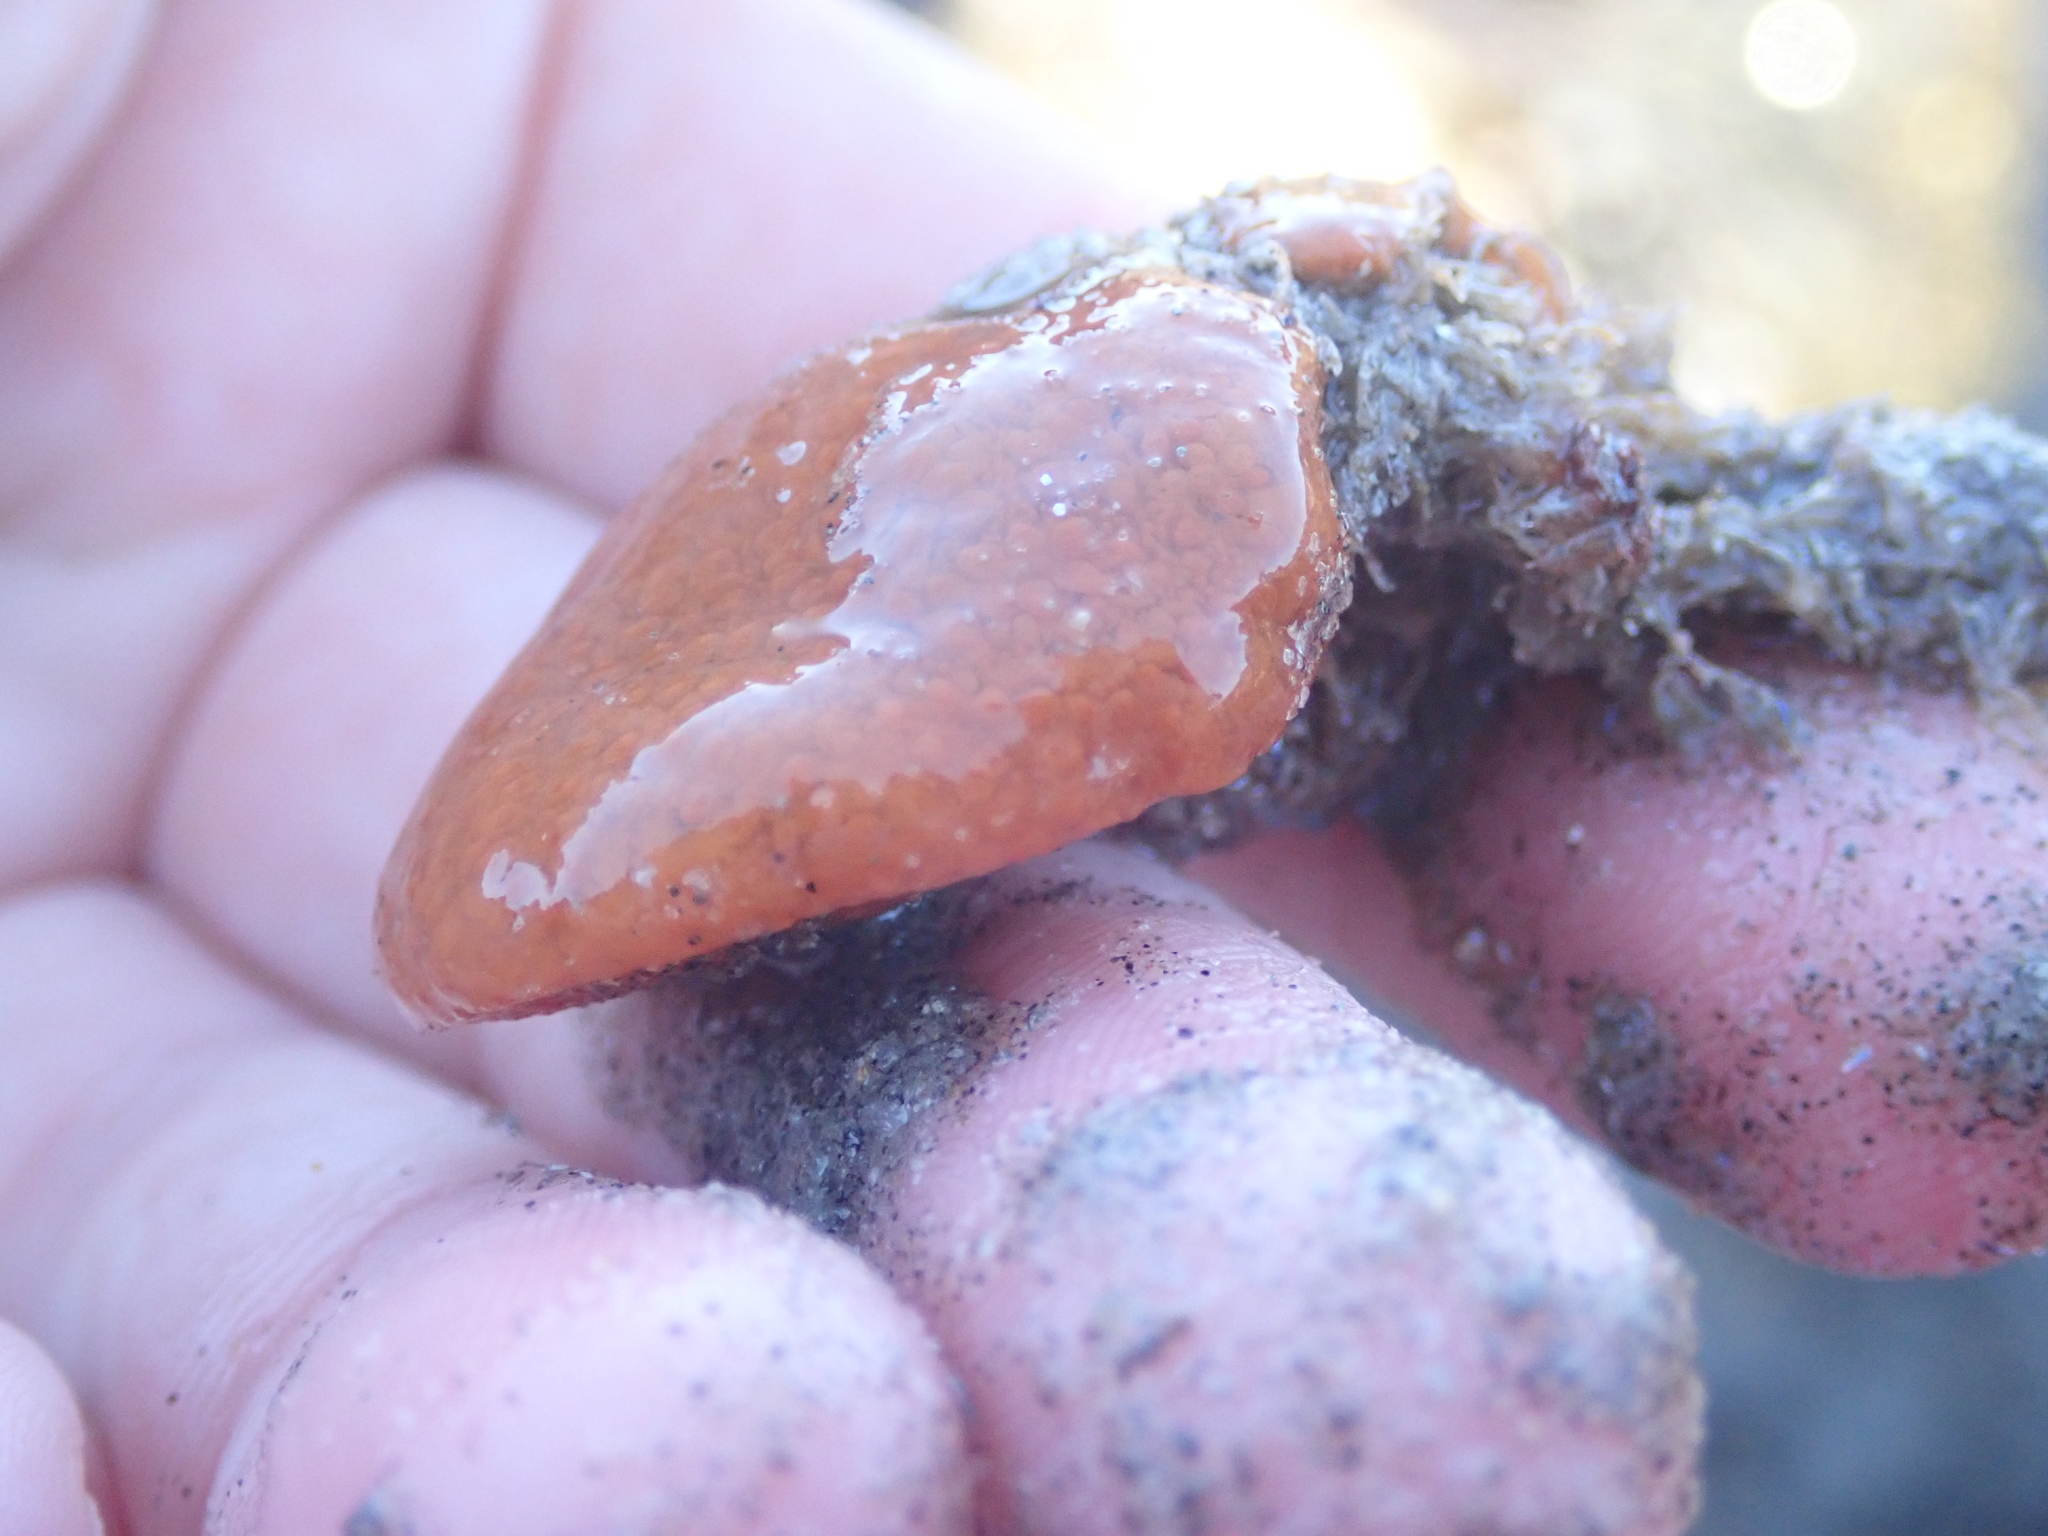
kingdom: Animalia
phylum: Chordata
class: Ascidiacea
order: Stolidobranchia
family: Styelidae
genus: Botrylloides
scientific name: Botrylloides violaceus
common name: Colonial sea squirt
